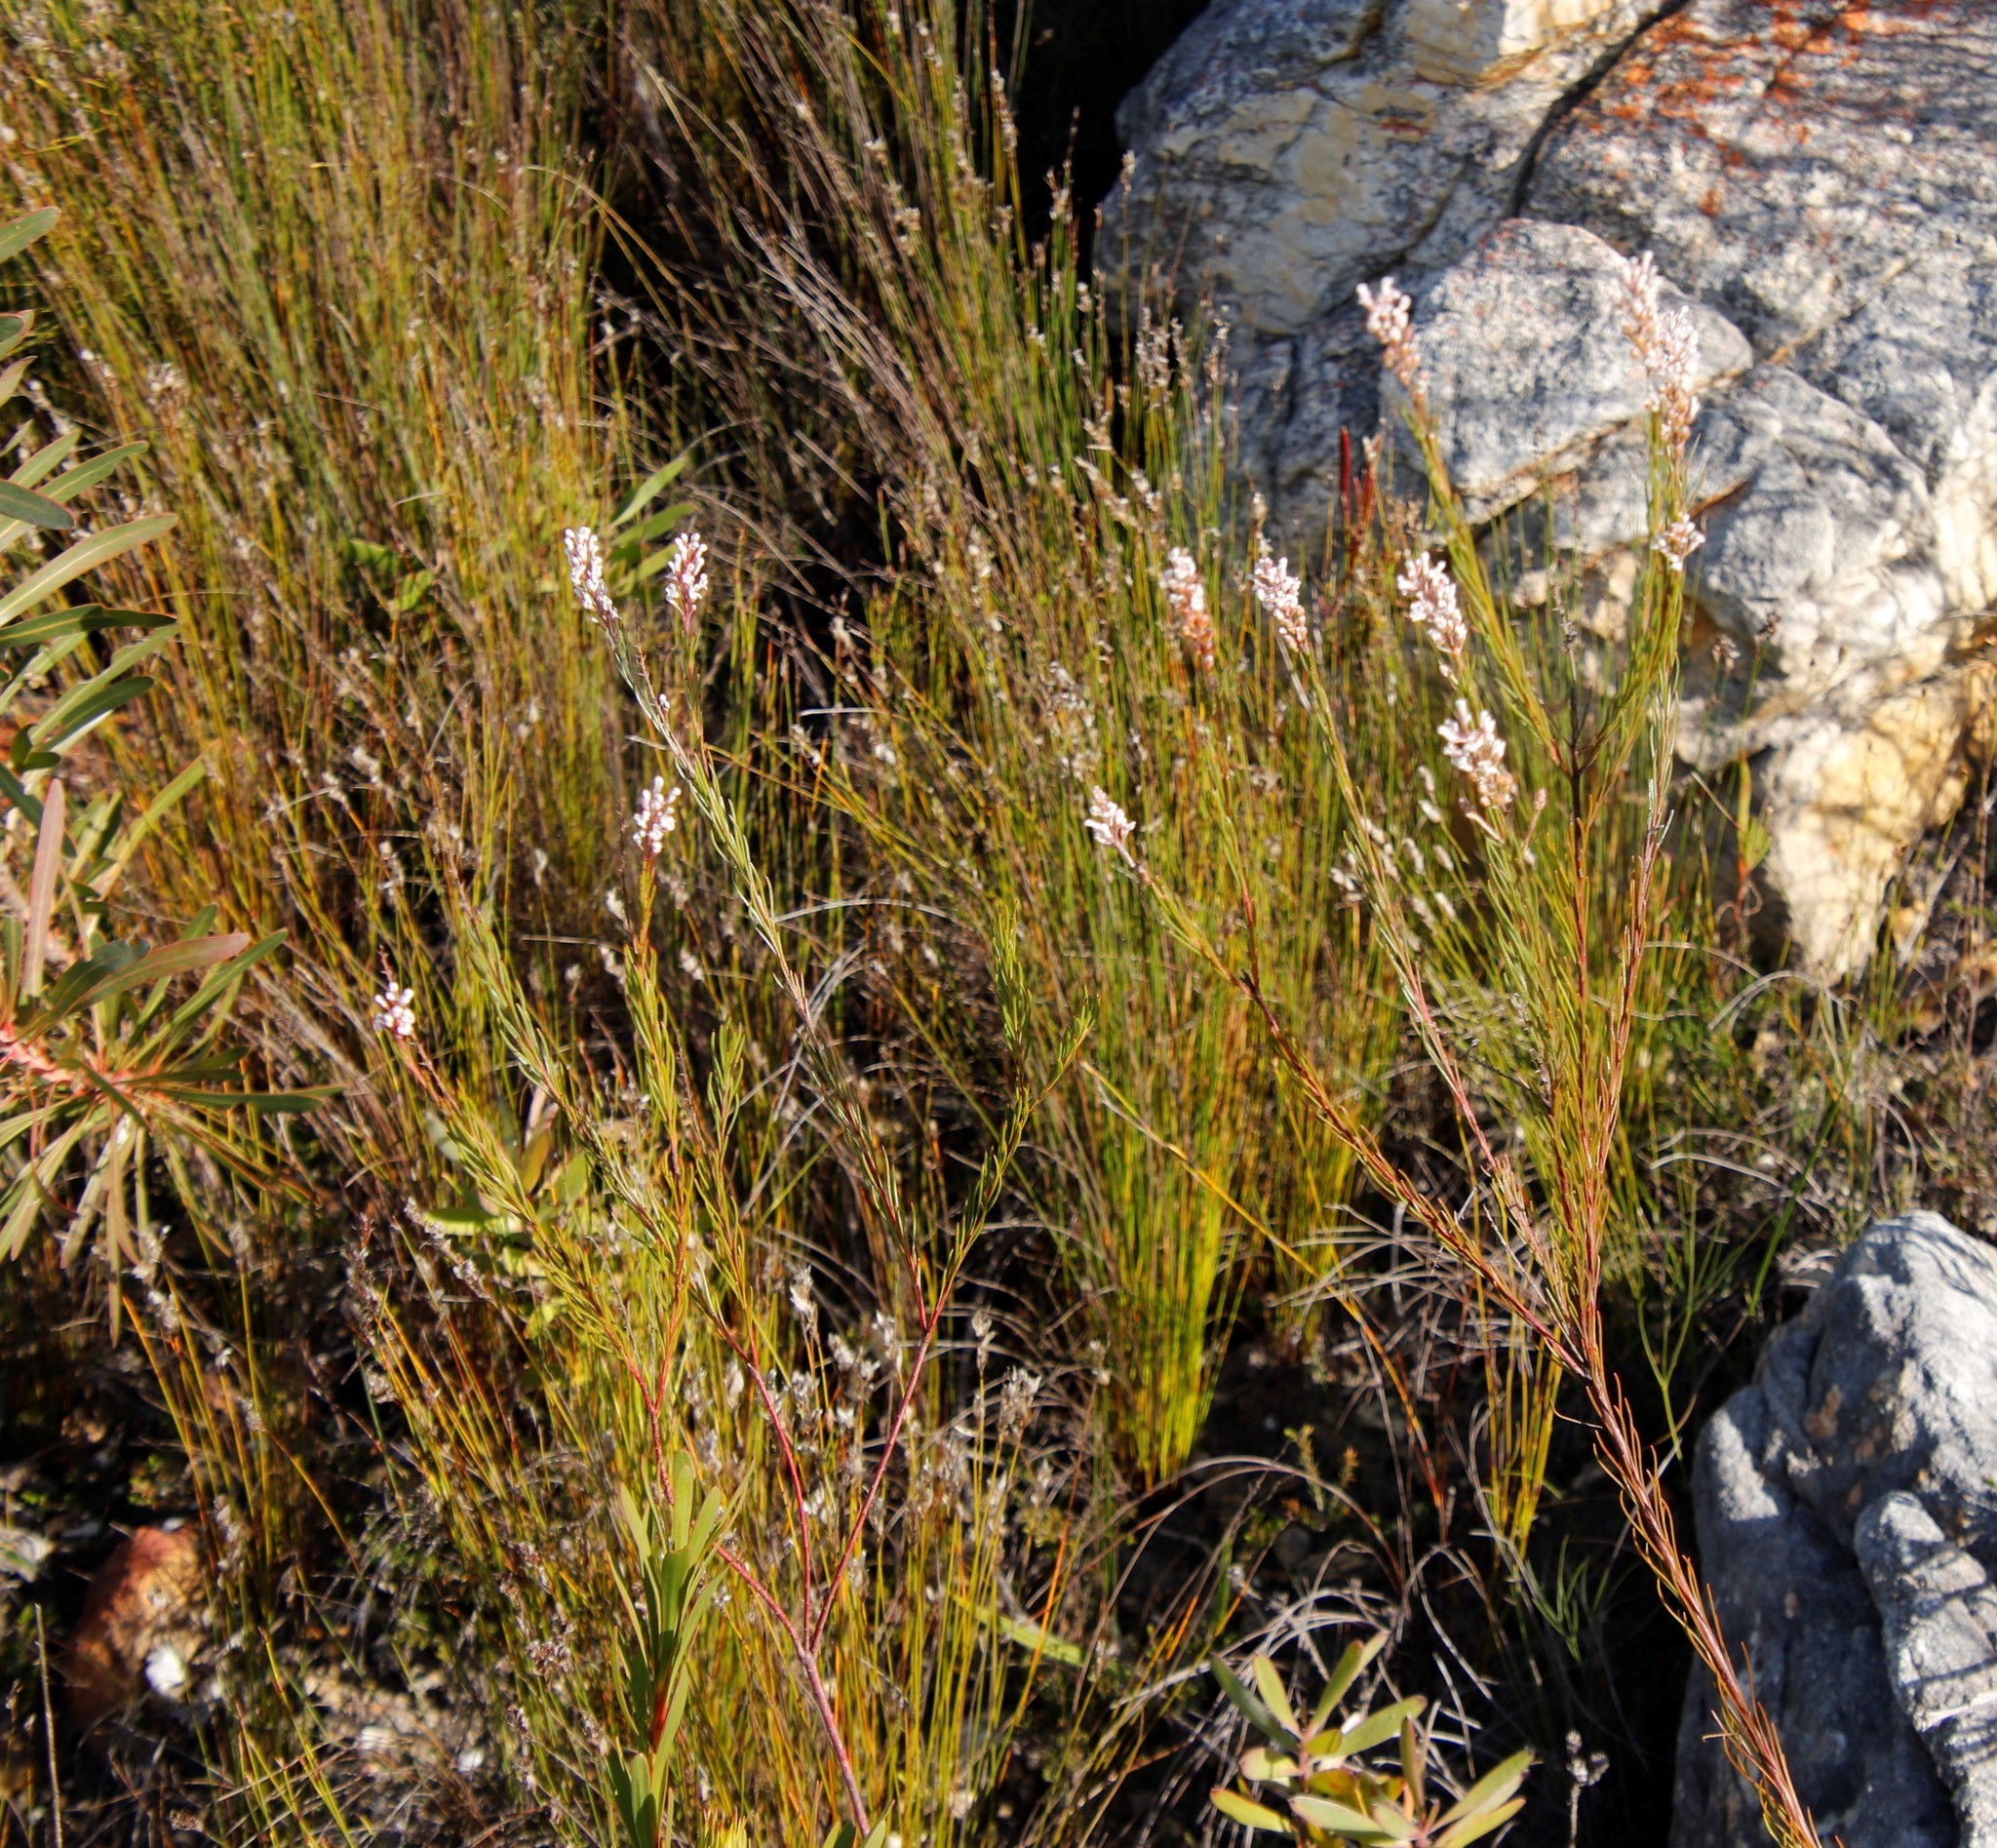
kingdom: Plantae
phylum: Tracheophyta
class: Magnoliopsida
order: Proteales
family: Proteaceae
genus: Spatalla
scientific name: Spatalla racemosa
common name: Lax-stalked spoon
